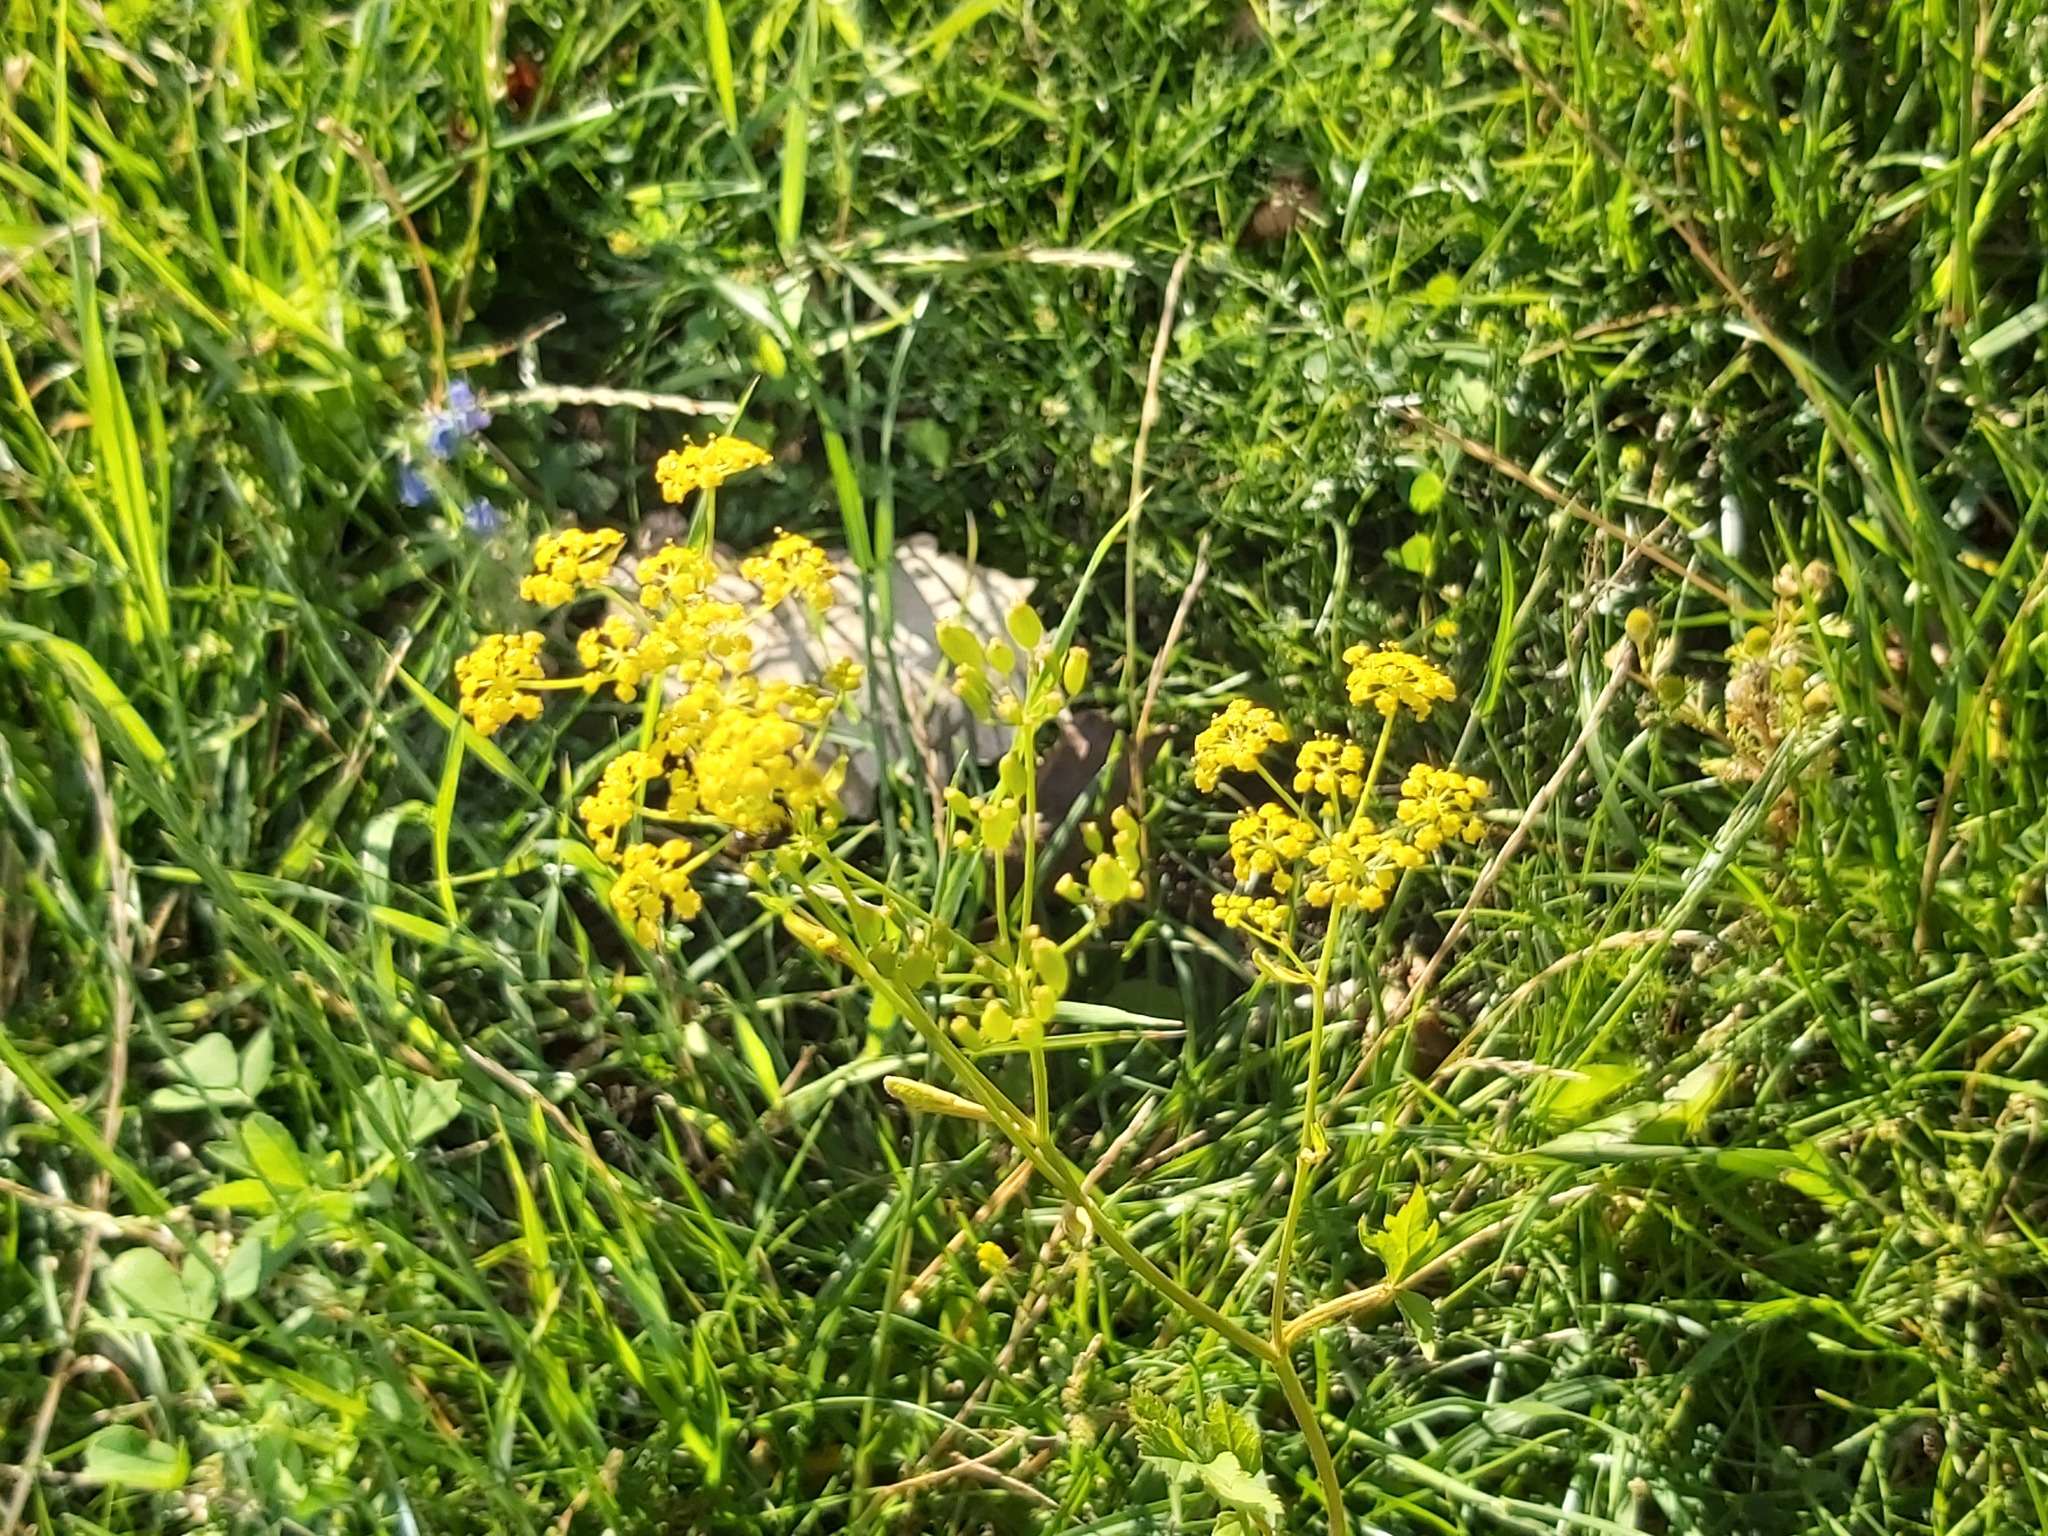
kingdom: Plantae
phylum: Tracheophyta
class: Magnoliopsida
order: Apiales
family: Apiaceae
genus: Pastinaca
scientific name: Pastinaca sativa
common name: Wild parsnip
